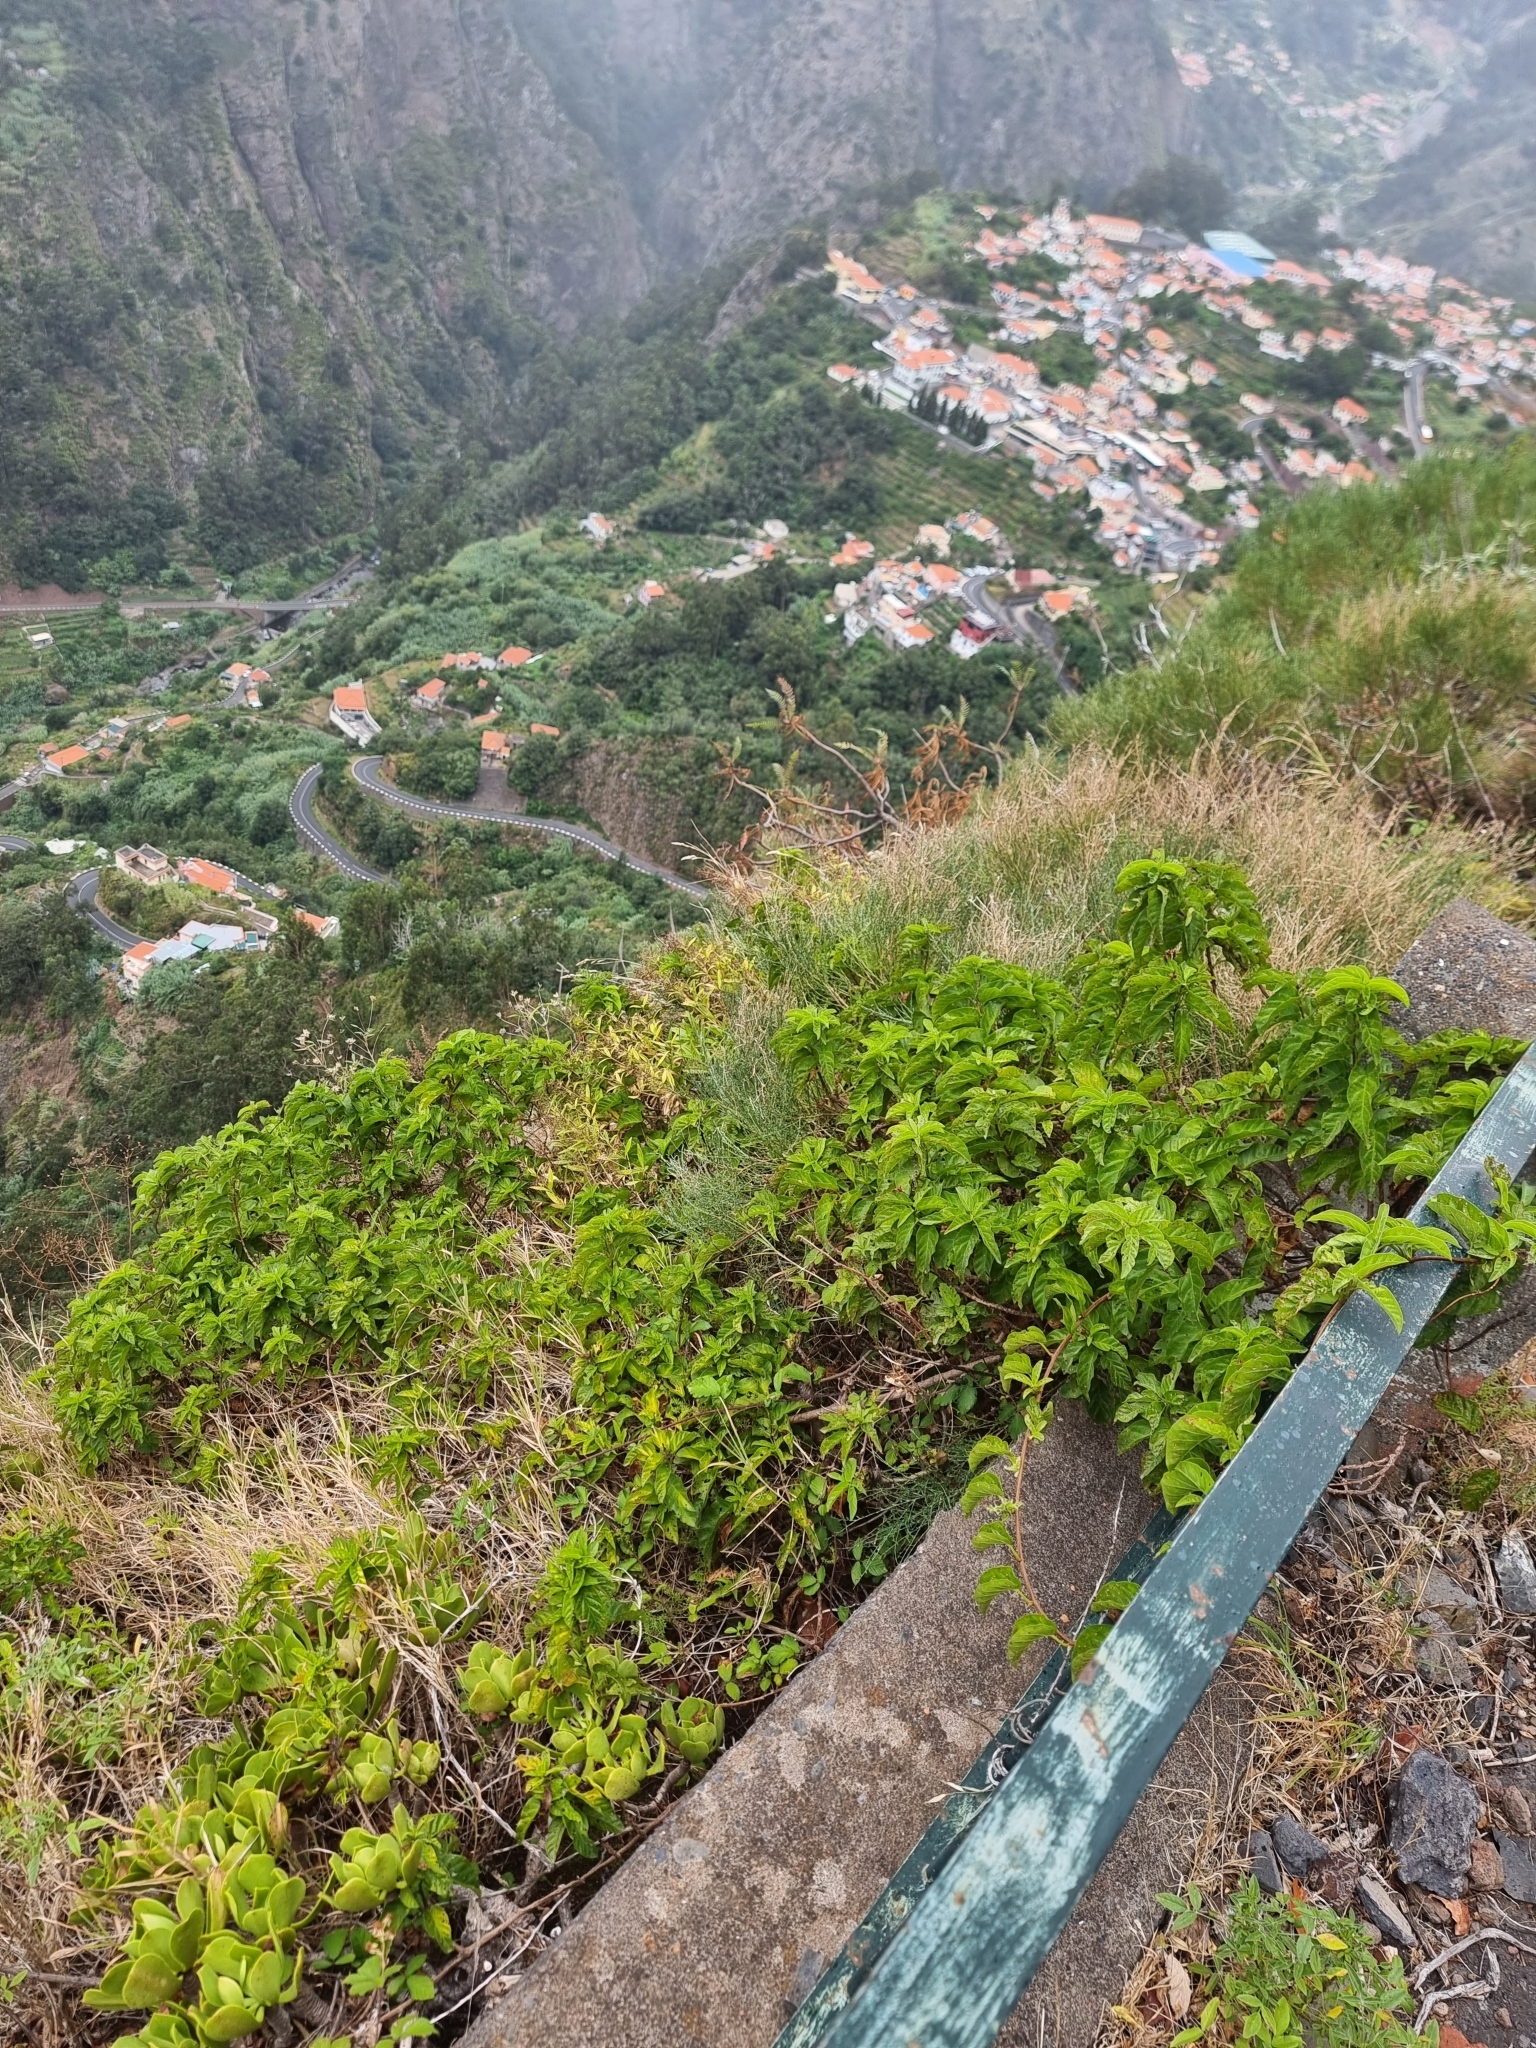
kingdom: Plantae
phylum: Tracheophyta
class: Magnoliopsida
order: Solanales
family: Convolvulaceae
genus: Convolvulus
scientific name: Convolvulus massonii
